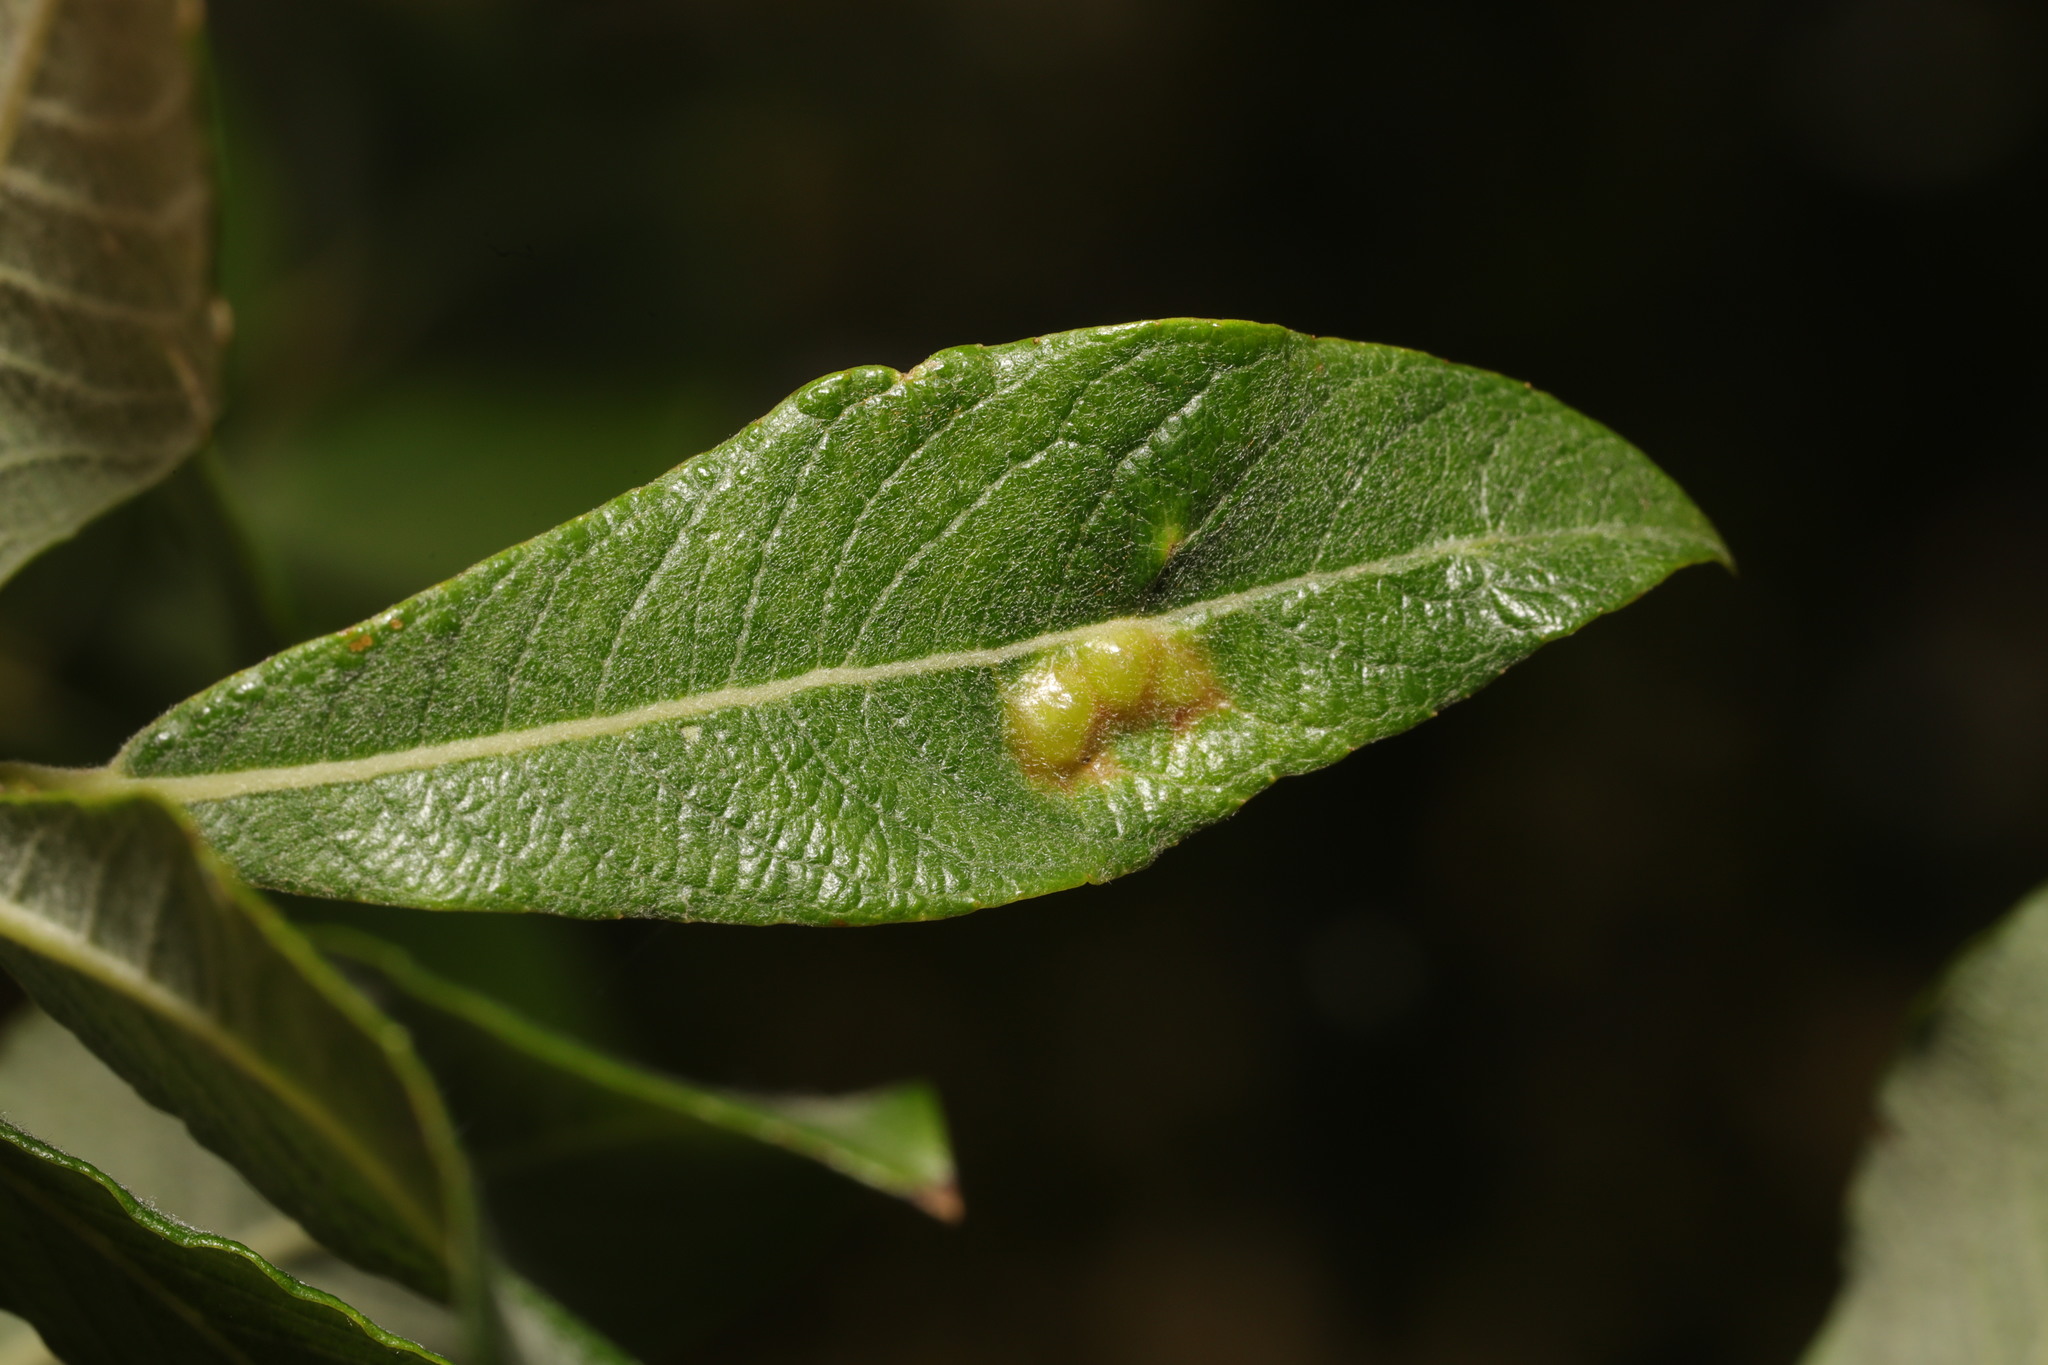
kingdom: Animalia
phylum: Arthropoda
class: Insecta
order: Diptera
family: Cecidomyiidae
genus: Iteomyia
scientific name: Iteomyia major
